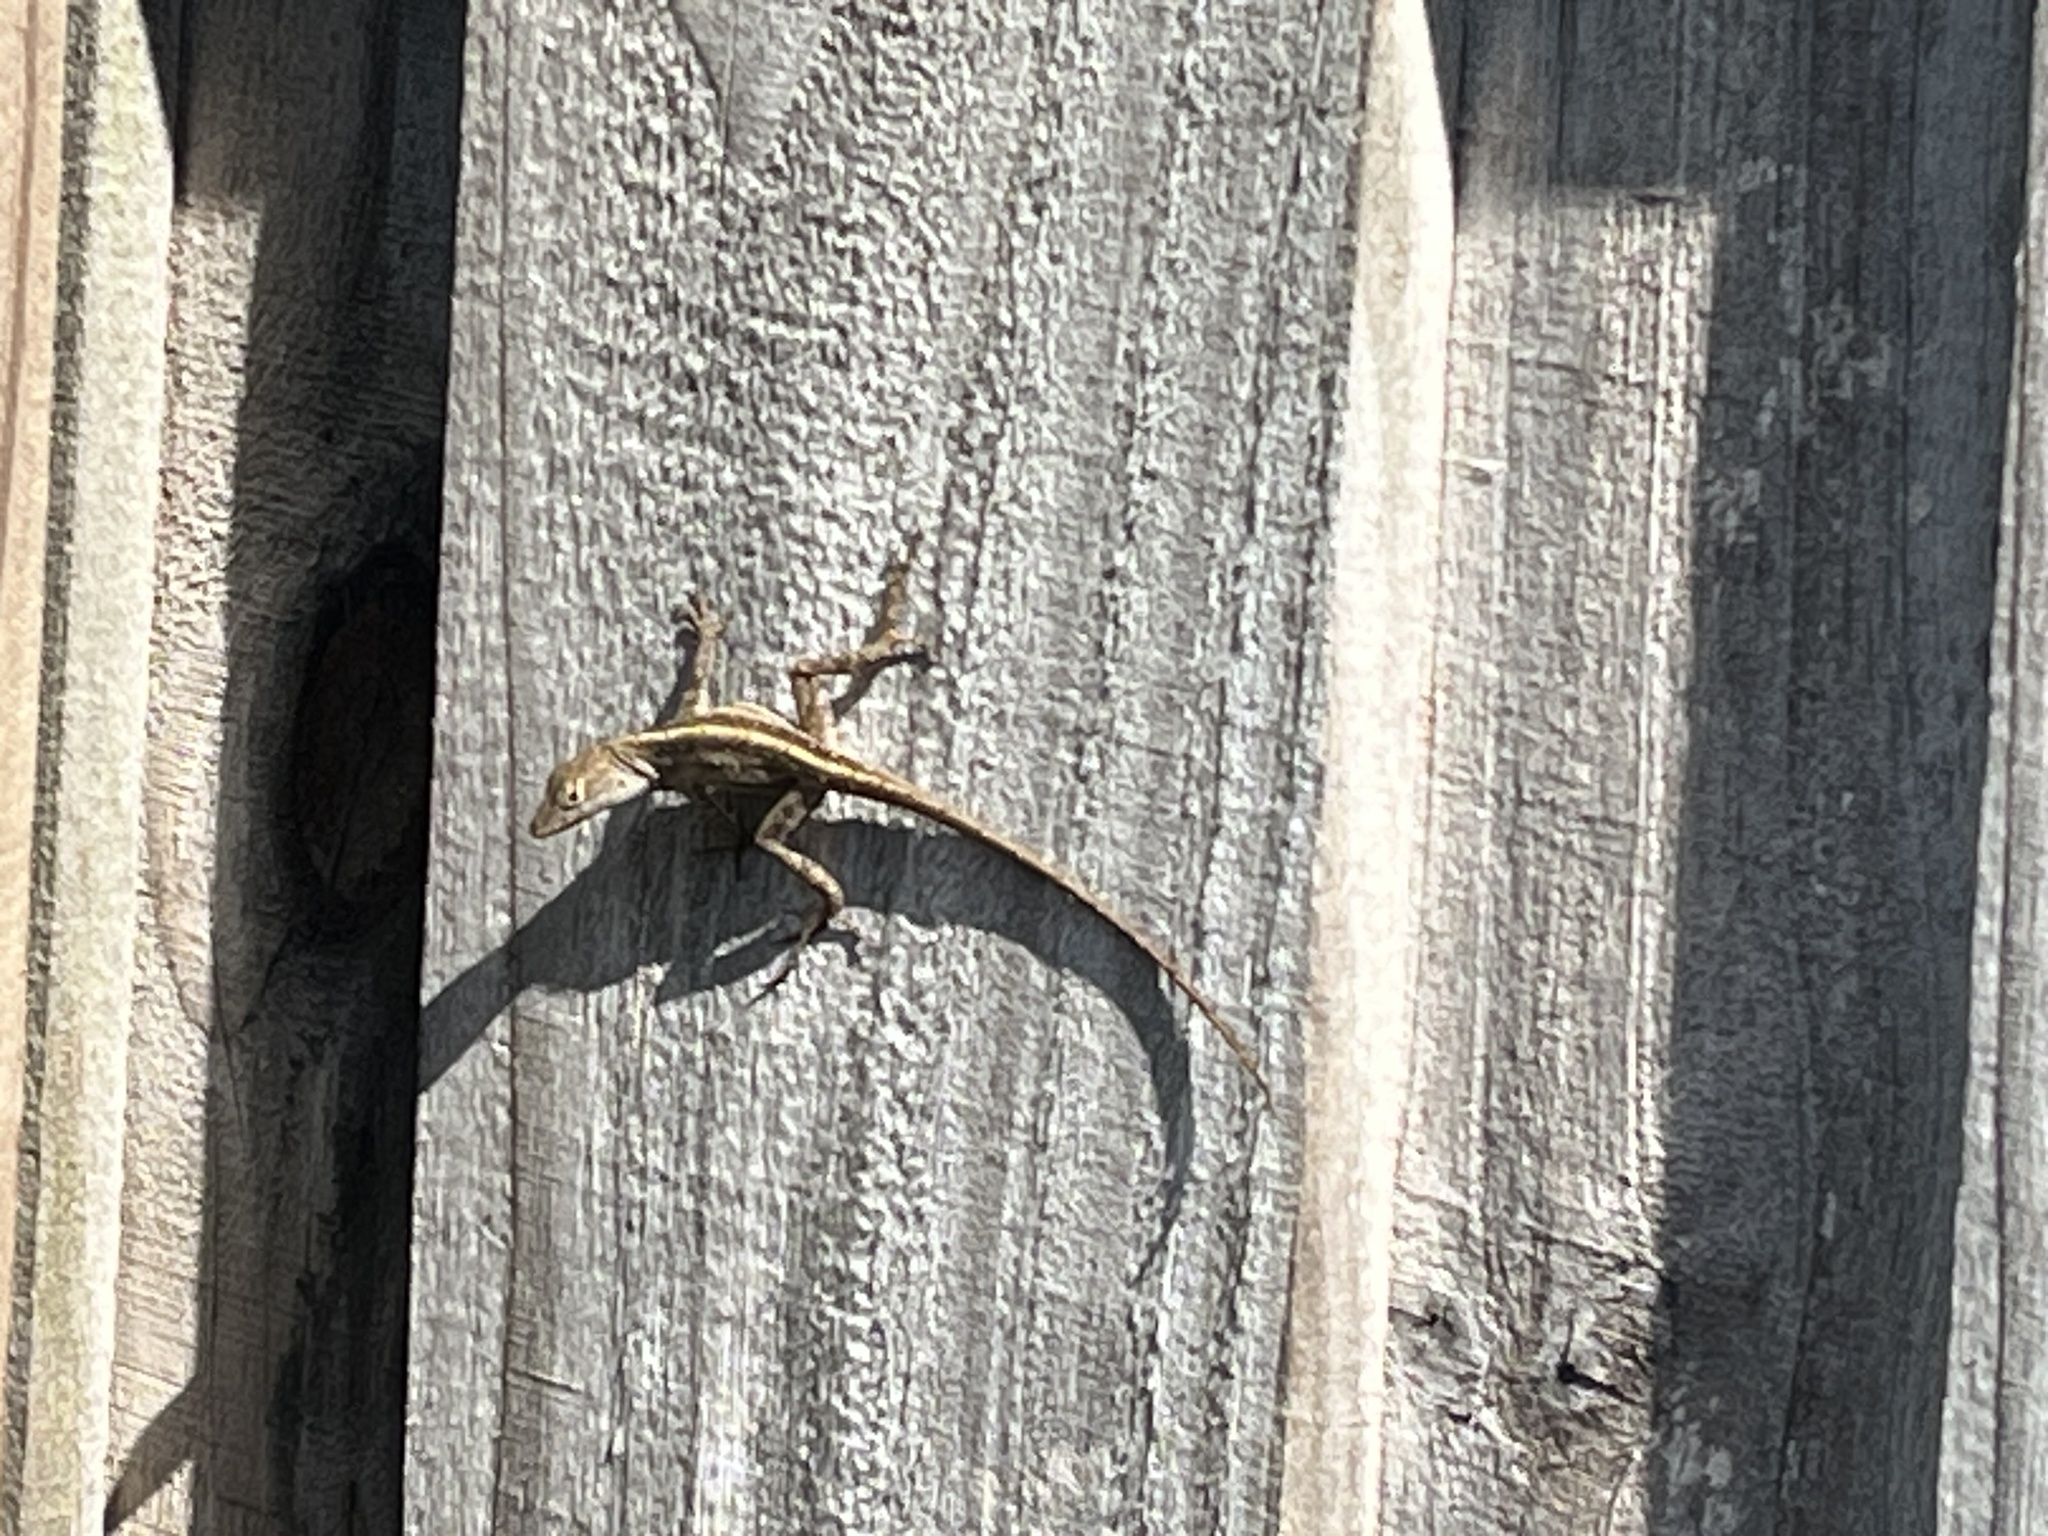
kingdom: Animalia
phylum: Chordata
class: Squamata
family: Dactyloidae
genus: Anolis
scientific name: Anolis sagrei
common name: Brown anole
